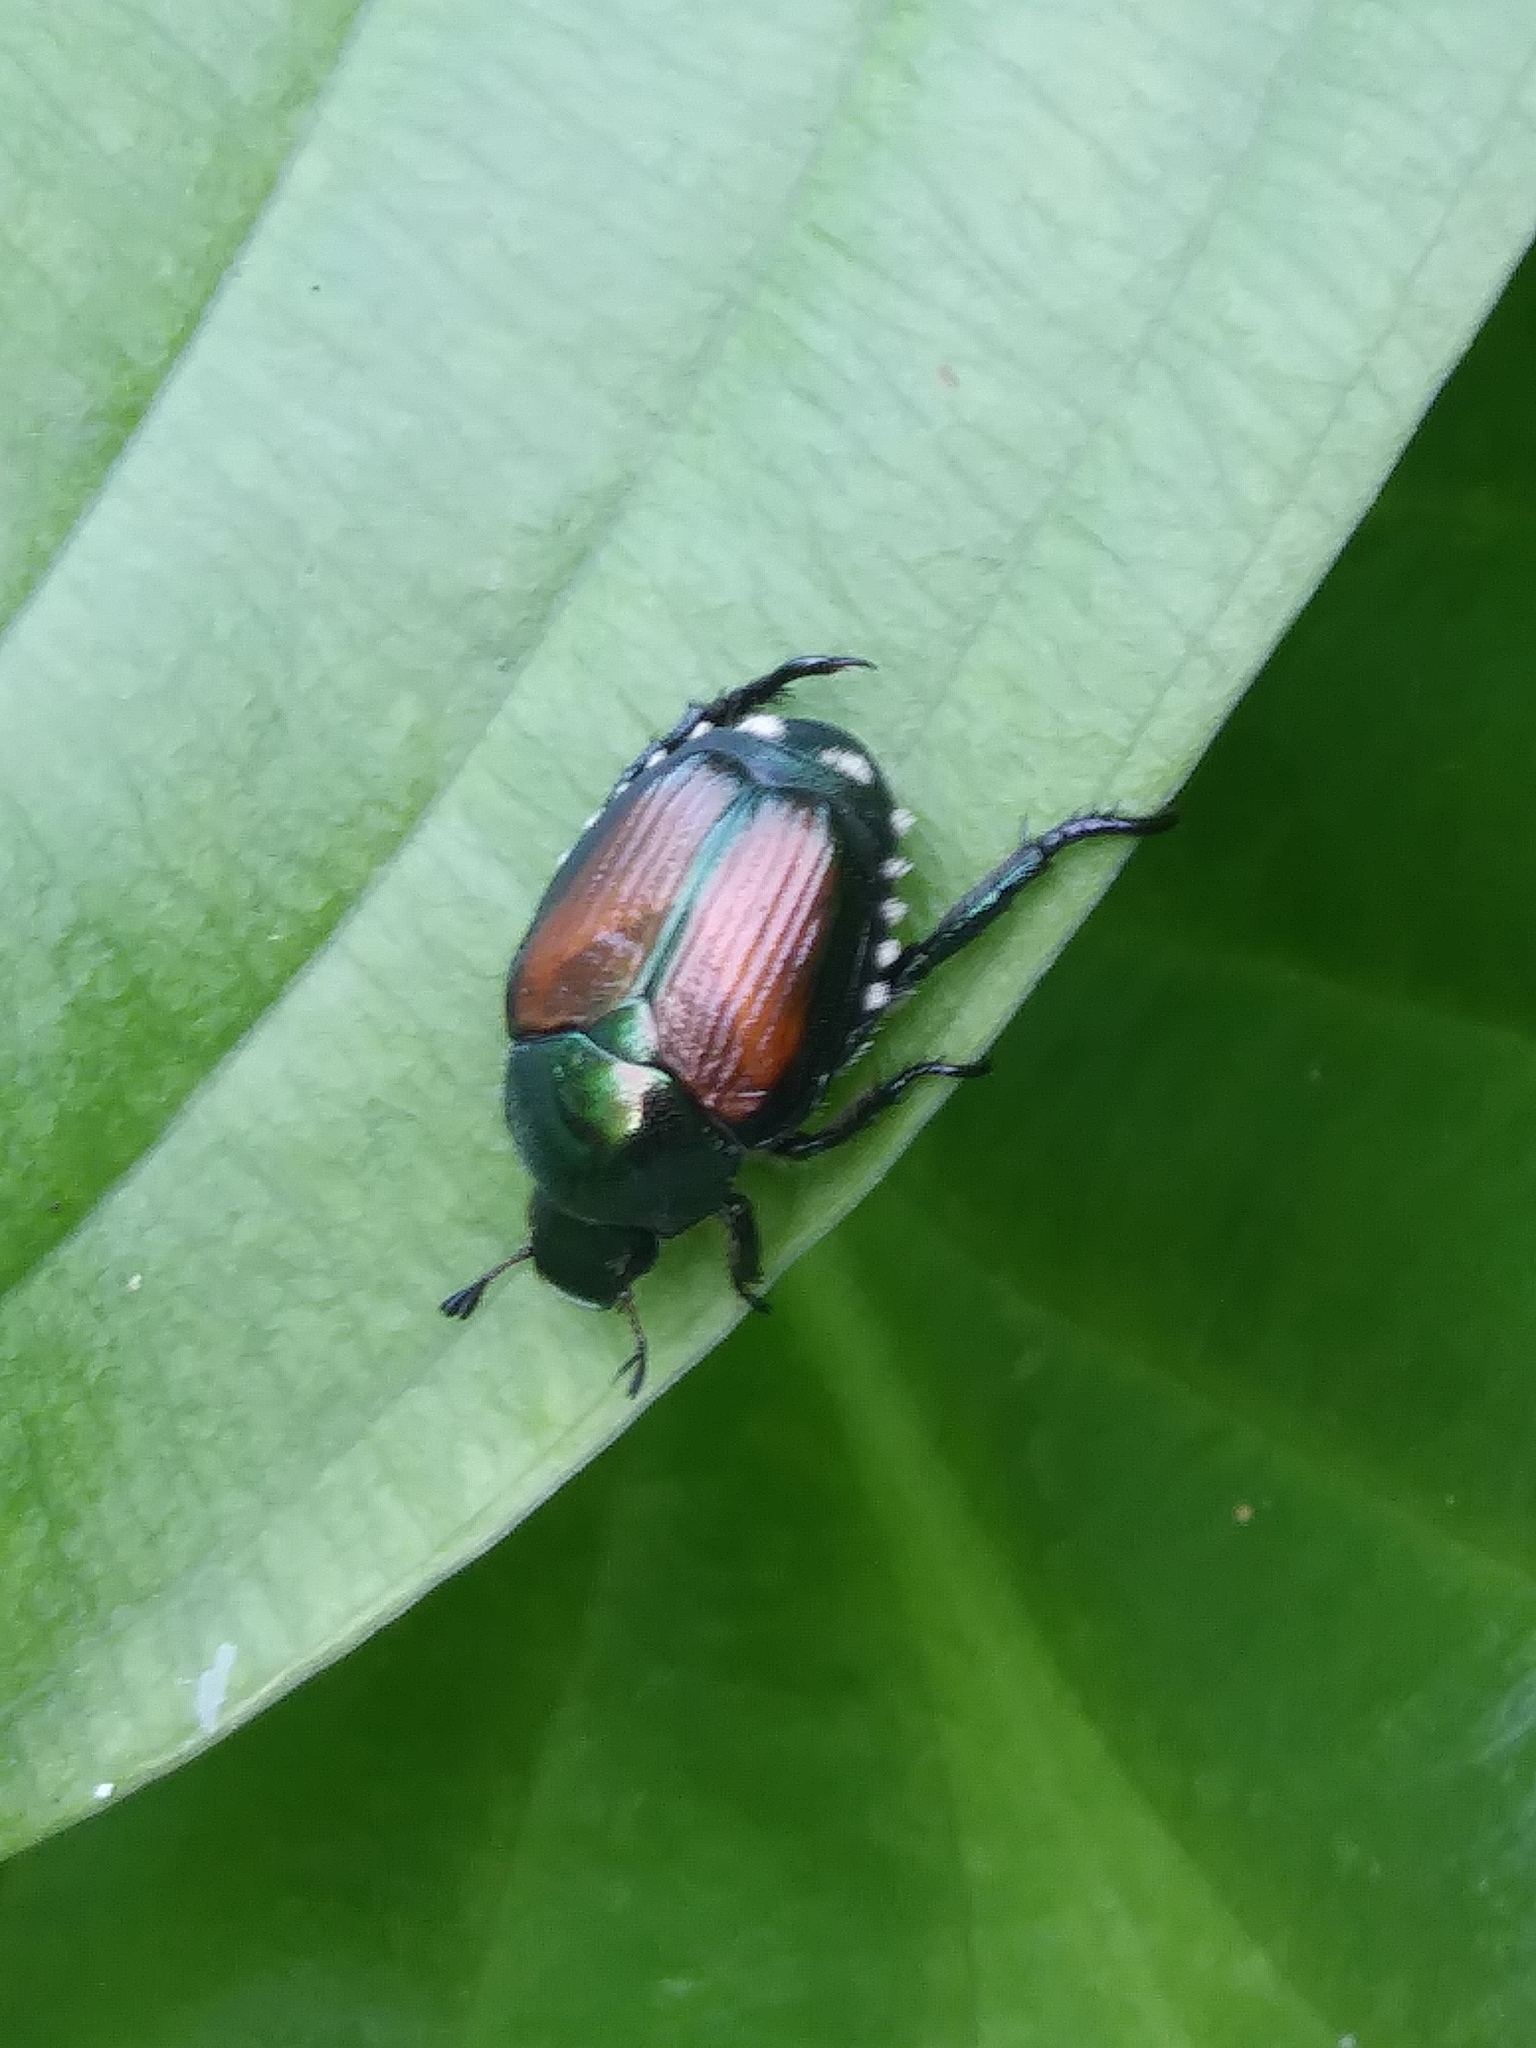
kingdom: Animalia
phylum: Arthropoda
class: Insecta
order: Coleoptera
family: Scarabaeidae
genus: Popillia
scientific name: Popillia japonica
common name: Japanese beetle
